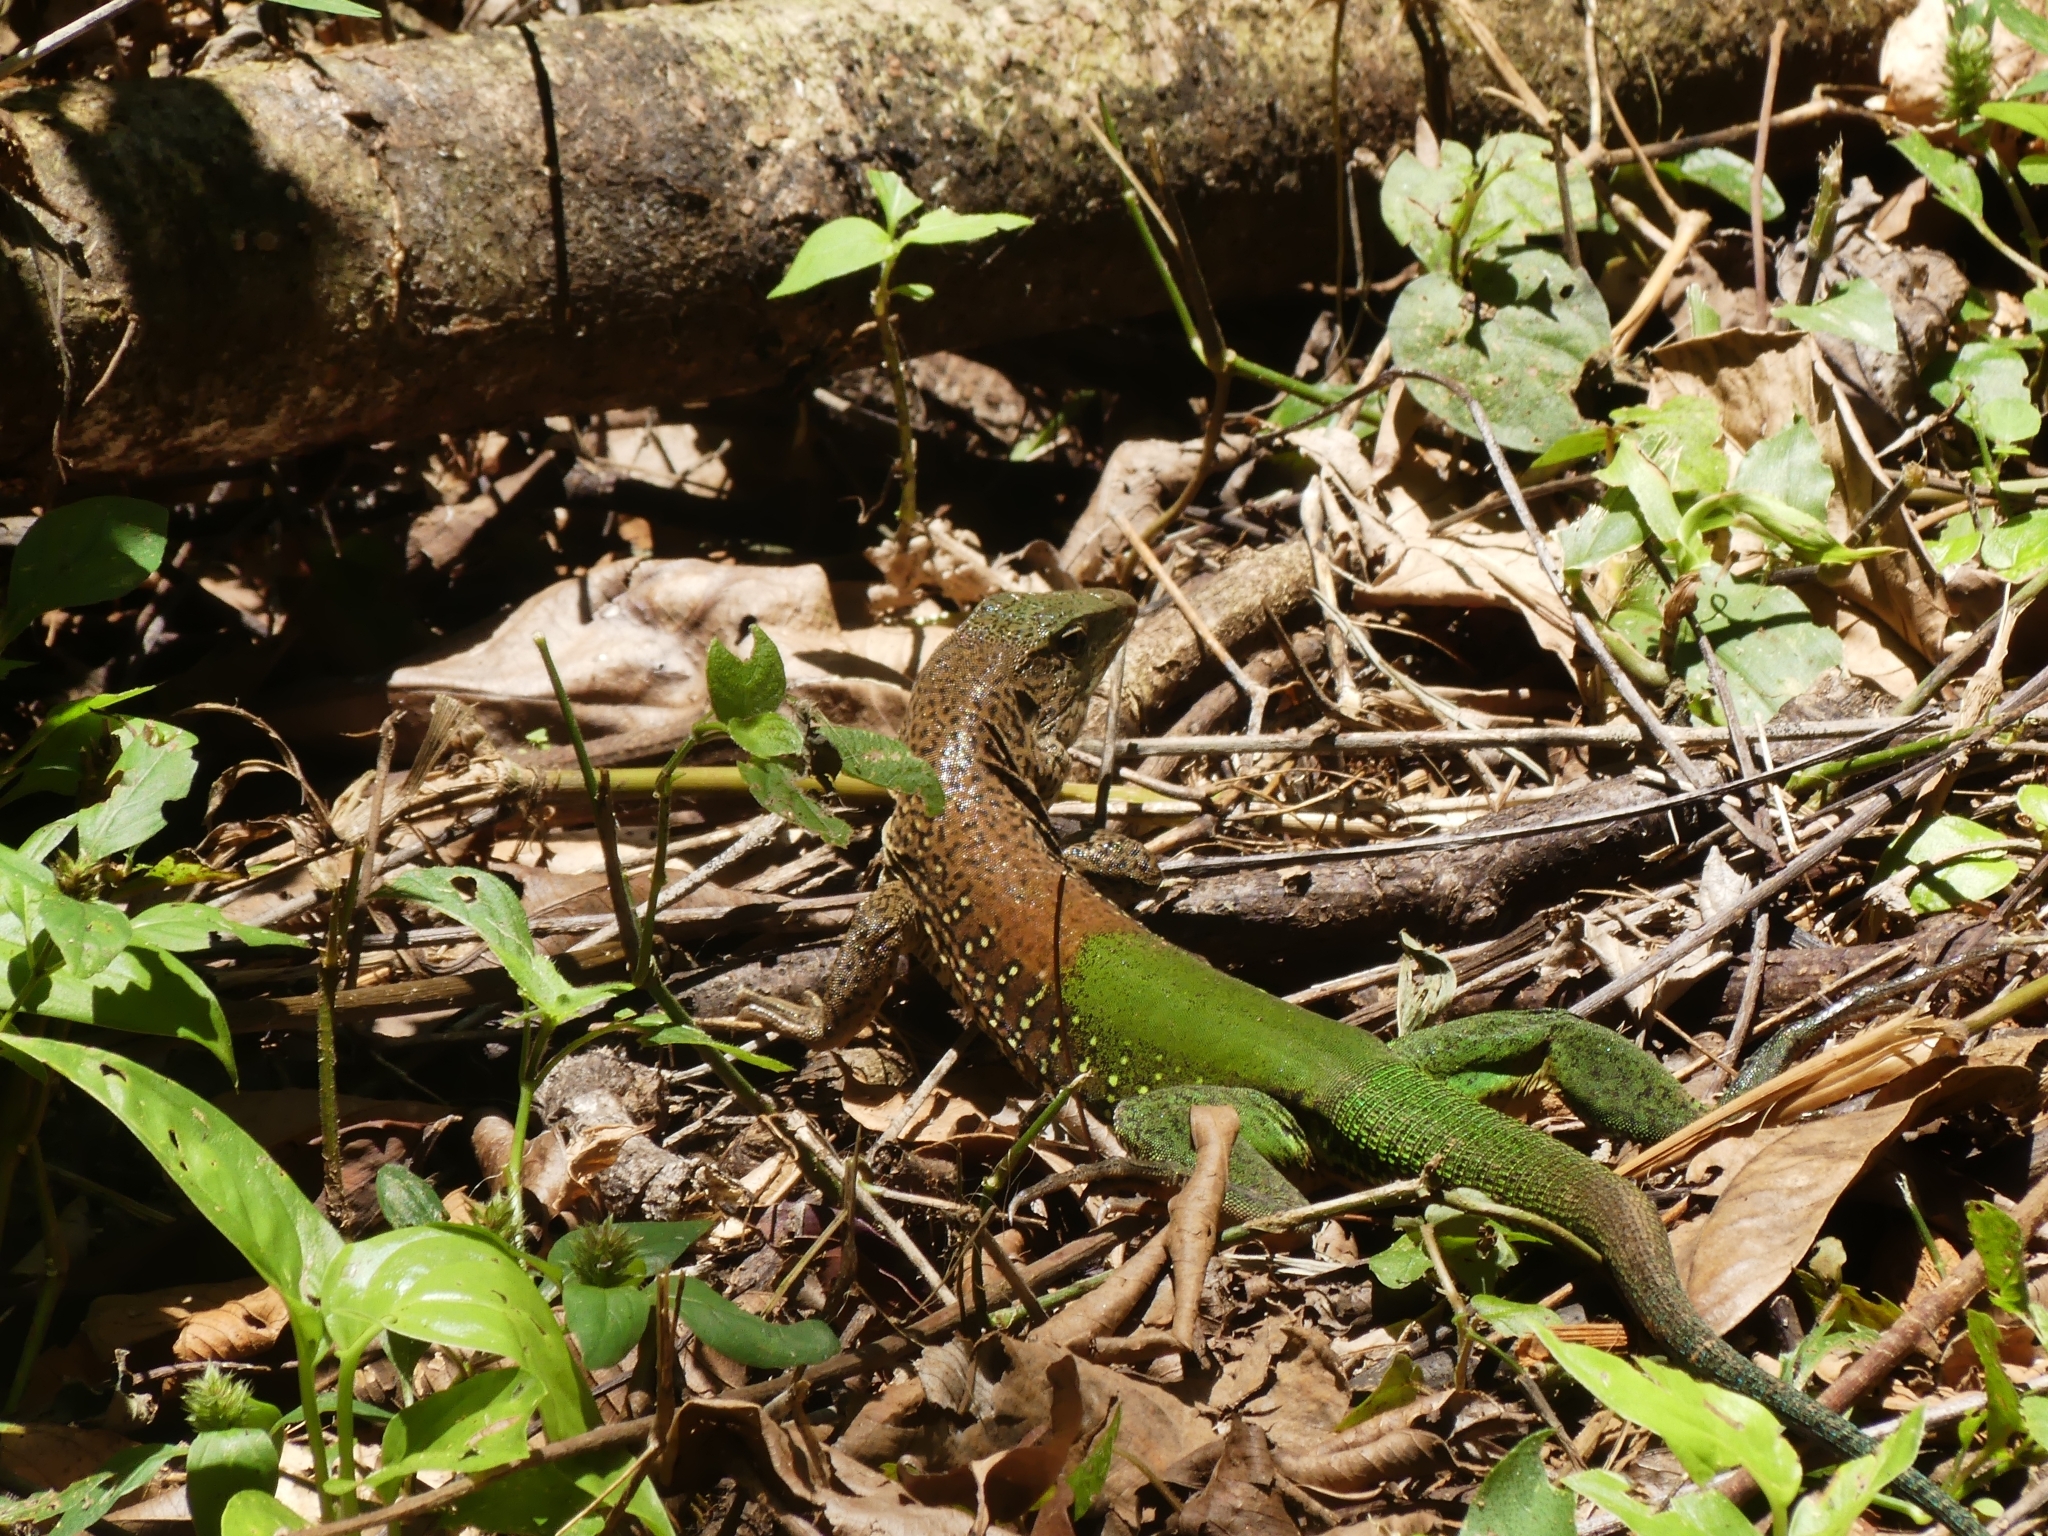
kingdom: Animalia
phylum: Chordata
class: Squamata
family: Teiidae
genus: Ameiva
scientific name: Ameiva ameiva
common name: Giant ameiva
